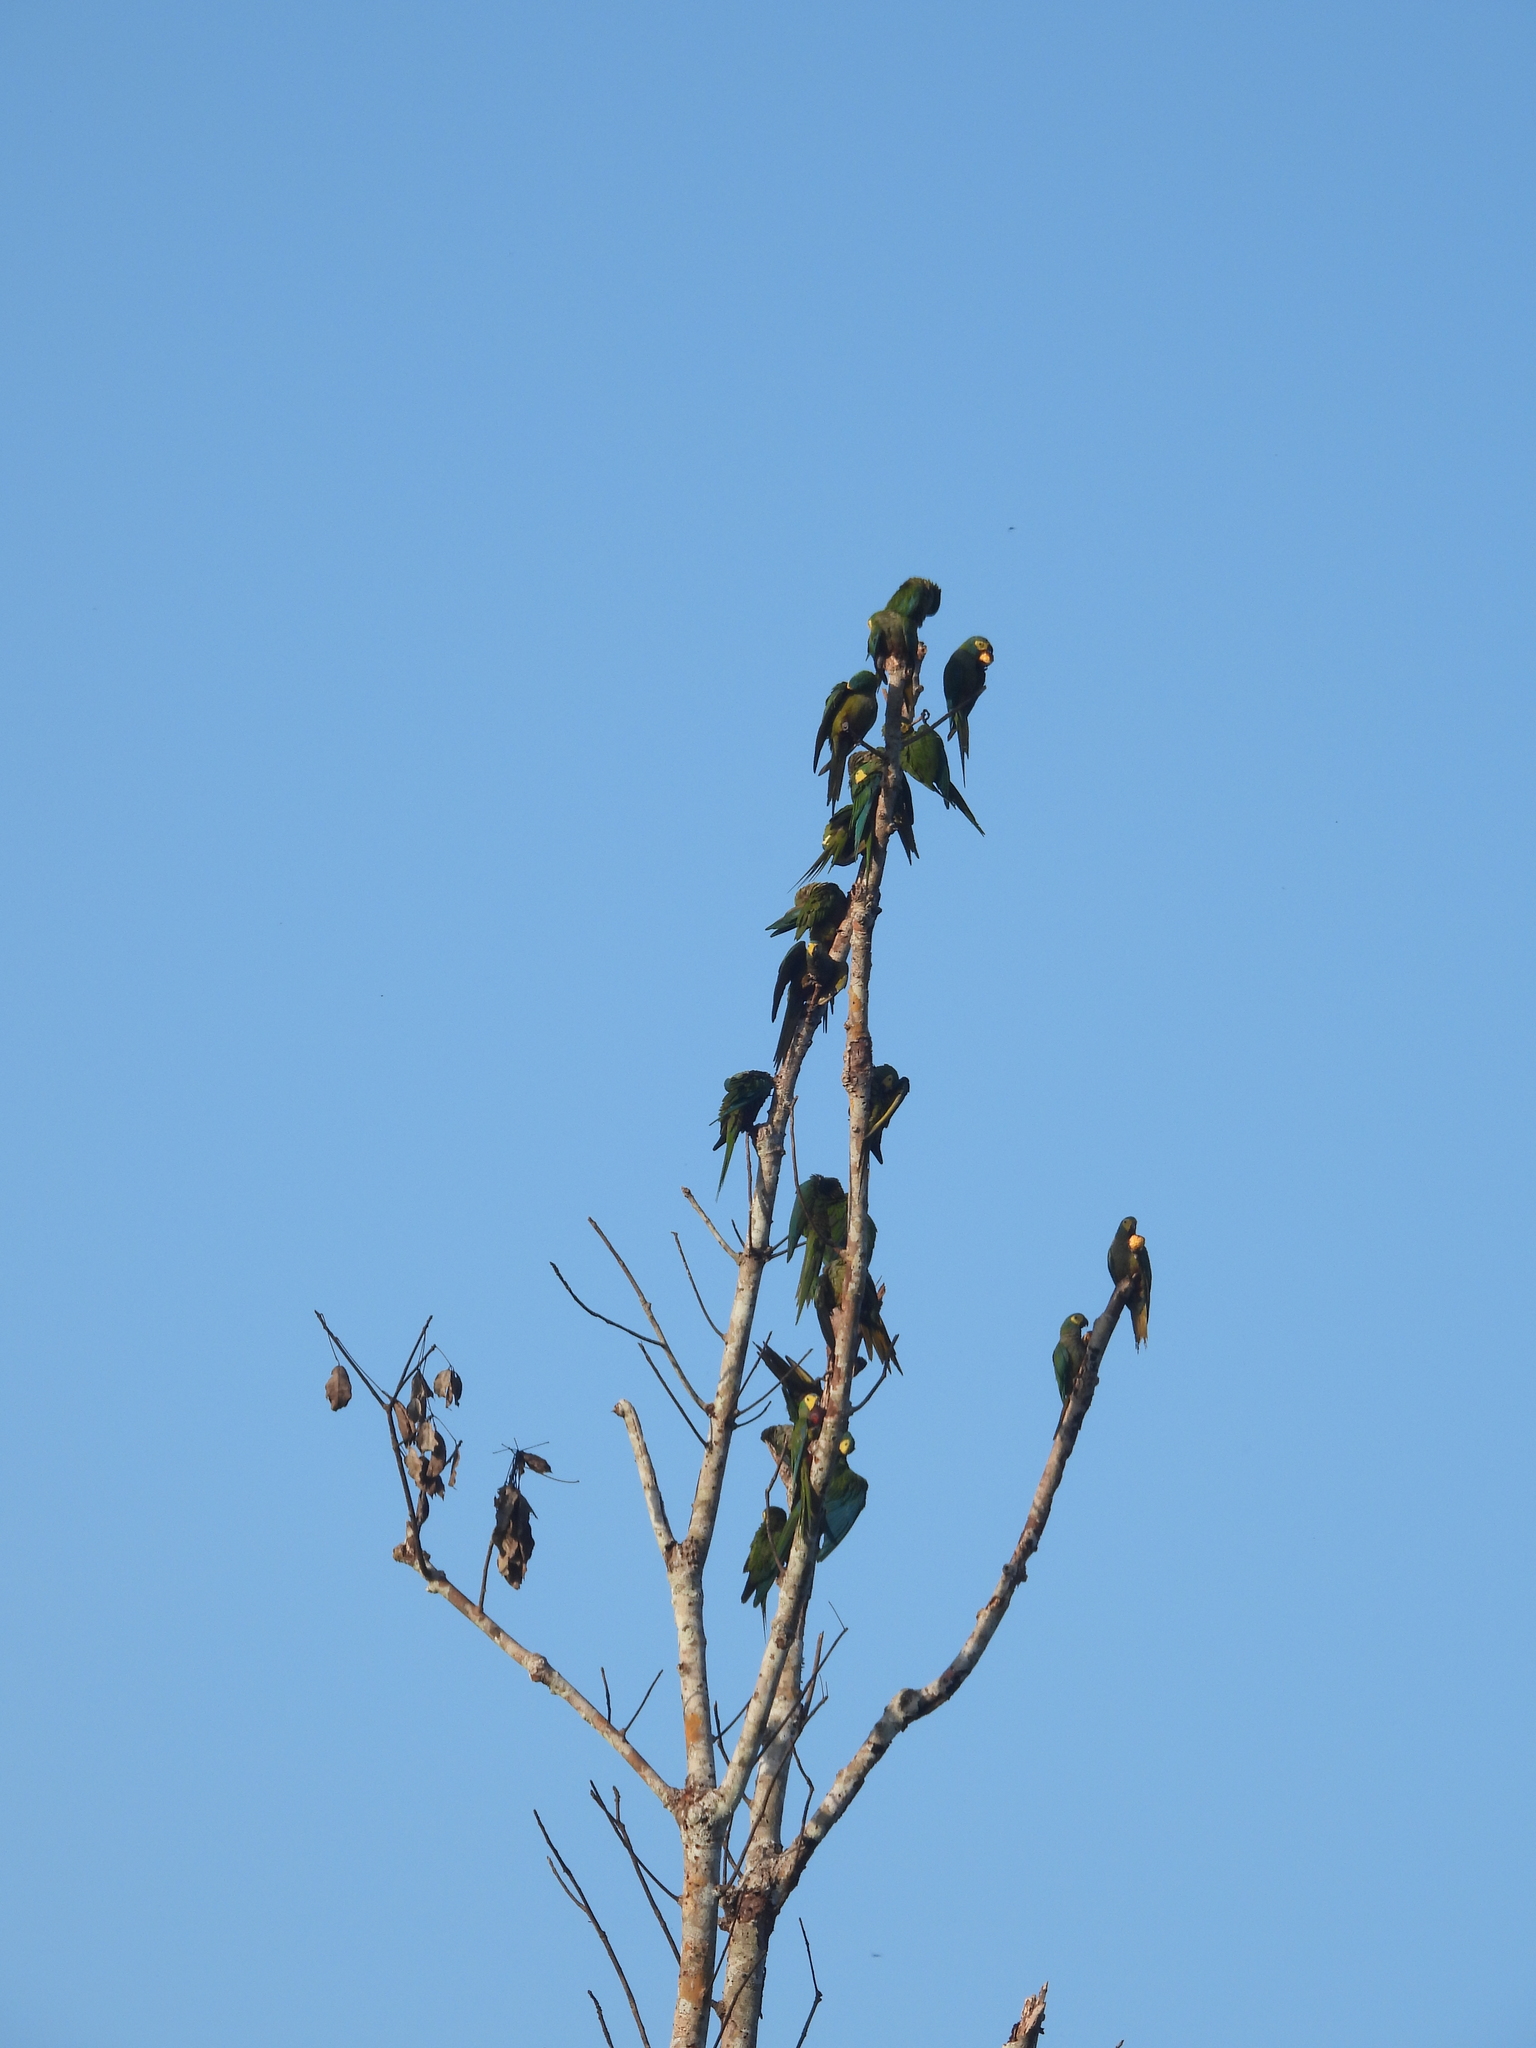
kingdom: Animalia
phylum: Chordata
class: Aves
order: Psittaciformes
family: Psittacidae
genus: Orthopsittaca
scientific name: Orthopsittaca manilata
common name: Red-bellied macaw
